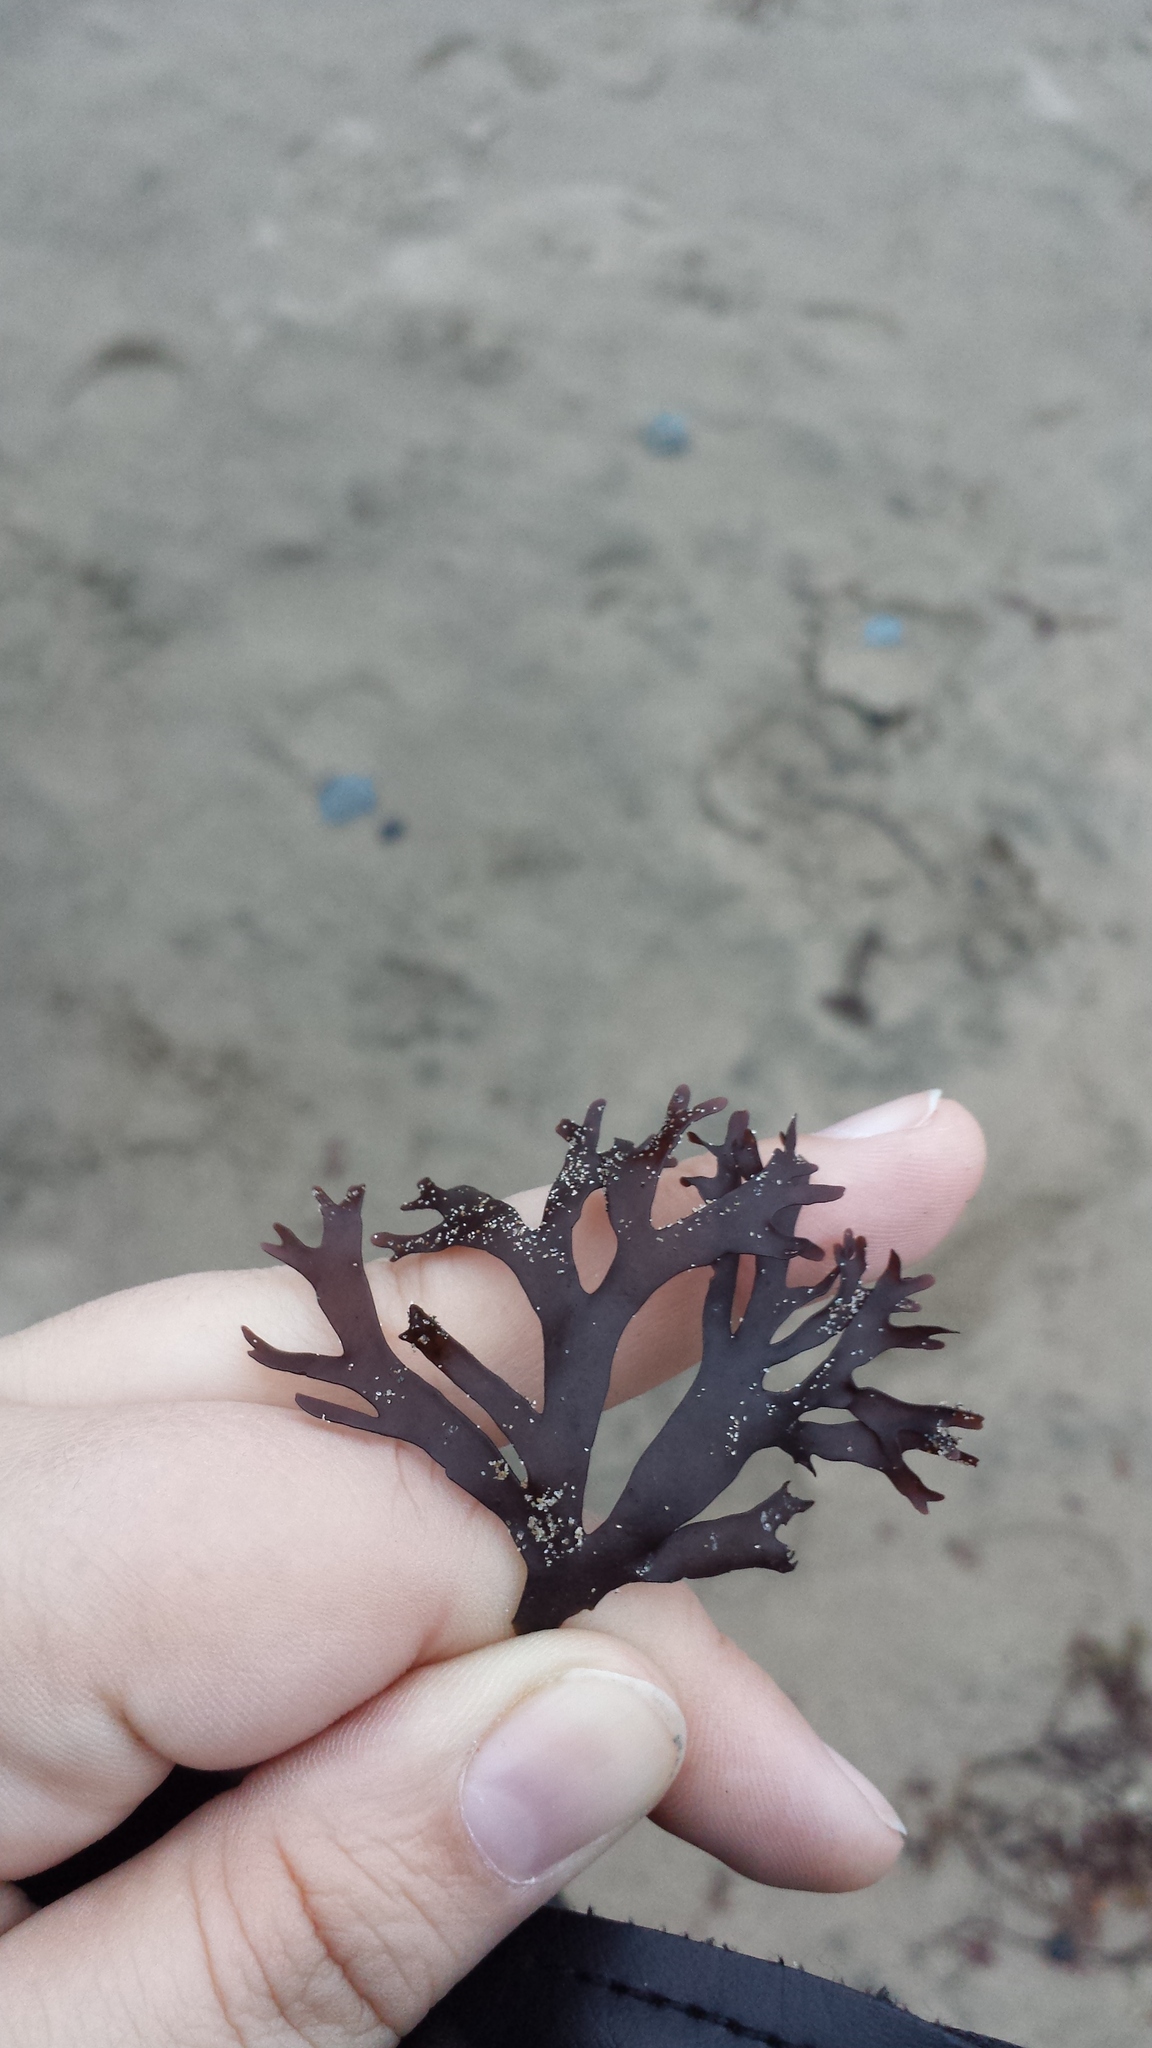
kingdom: Plantae
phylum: Rhodophyta
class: Florideophyceae
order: Gigartinales
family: Gigartinaceae
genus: Chondrus
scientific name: Chondrus crispus
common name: Carrageen
